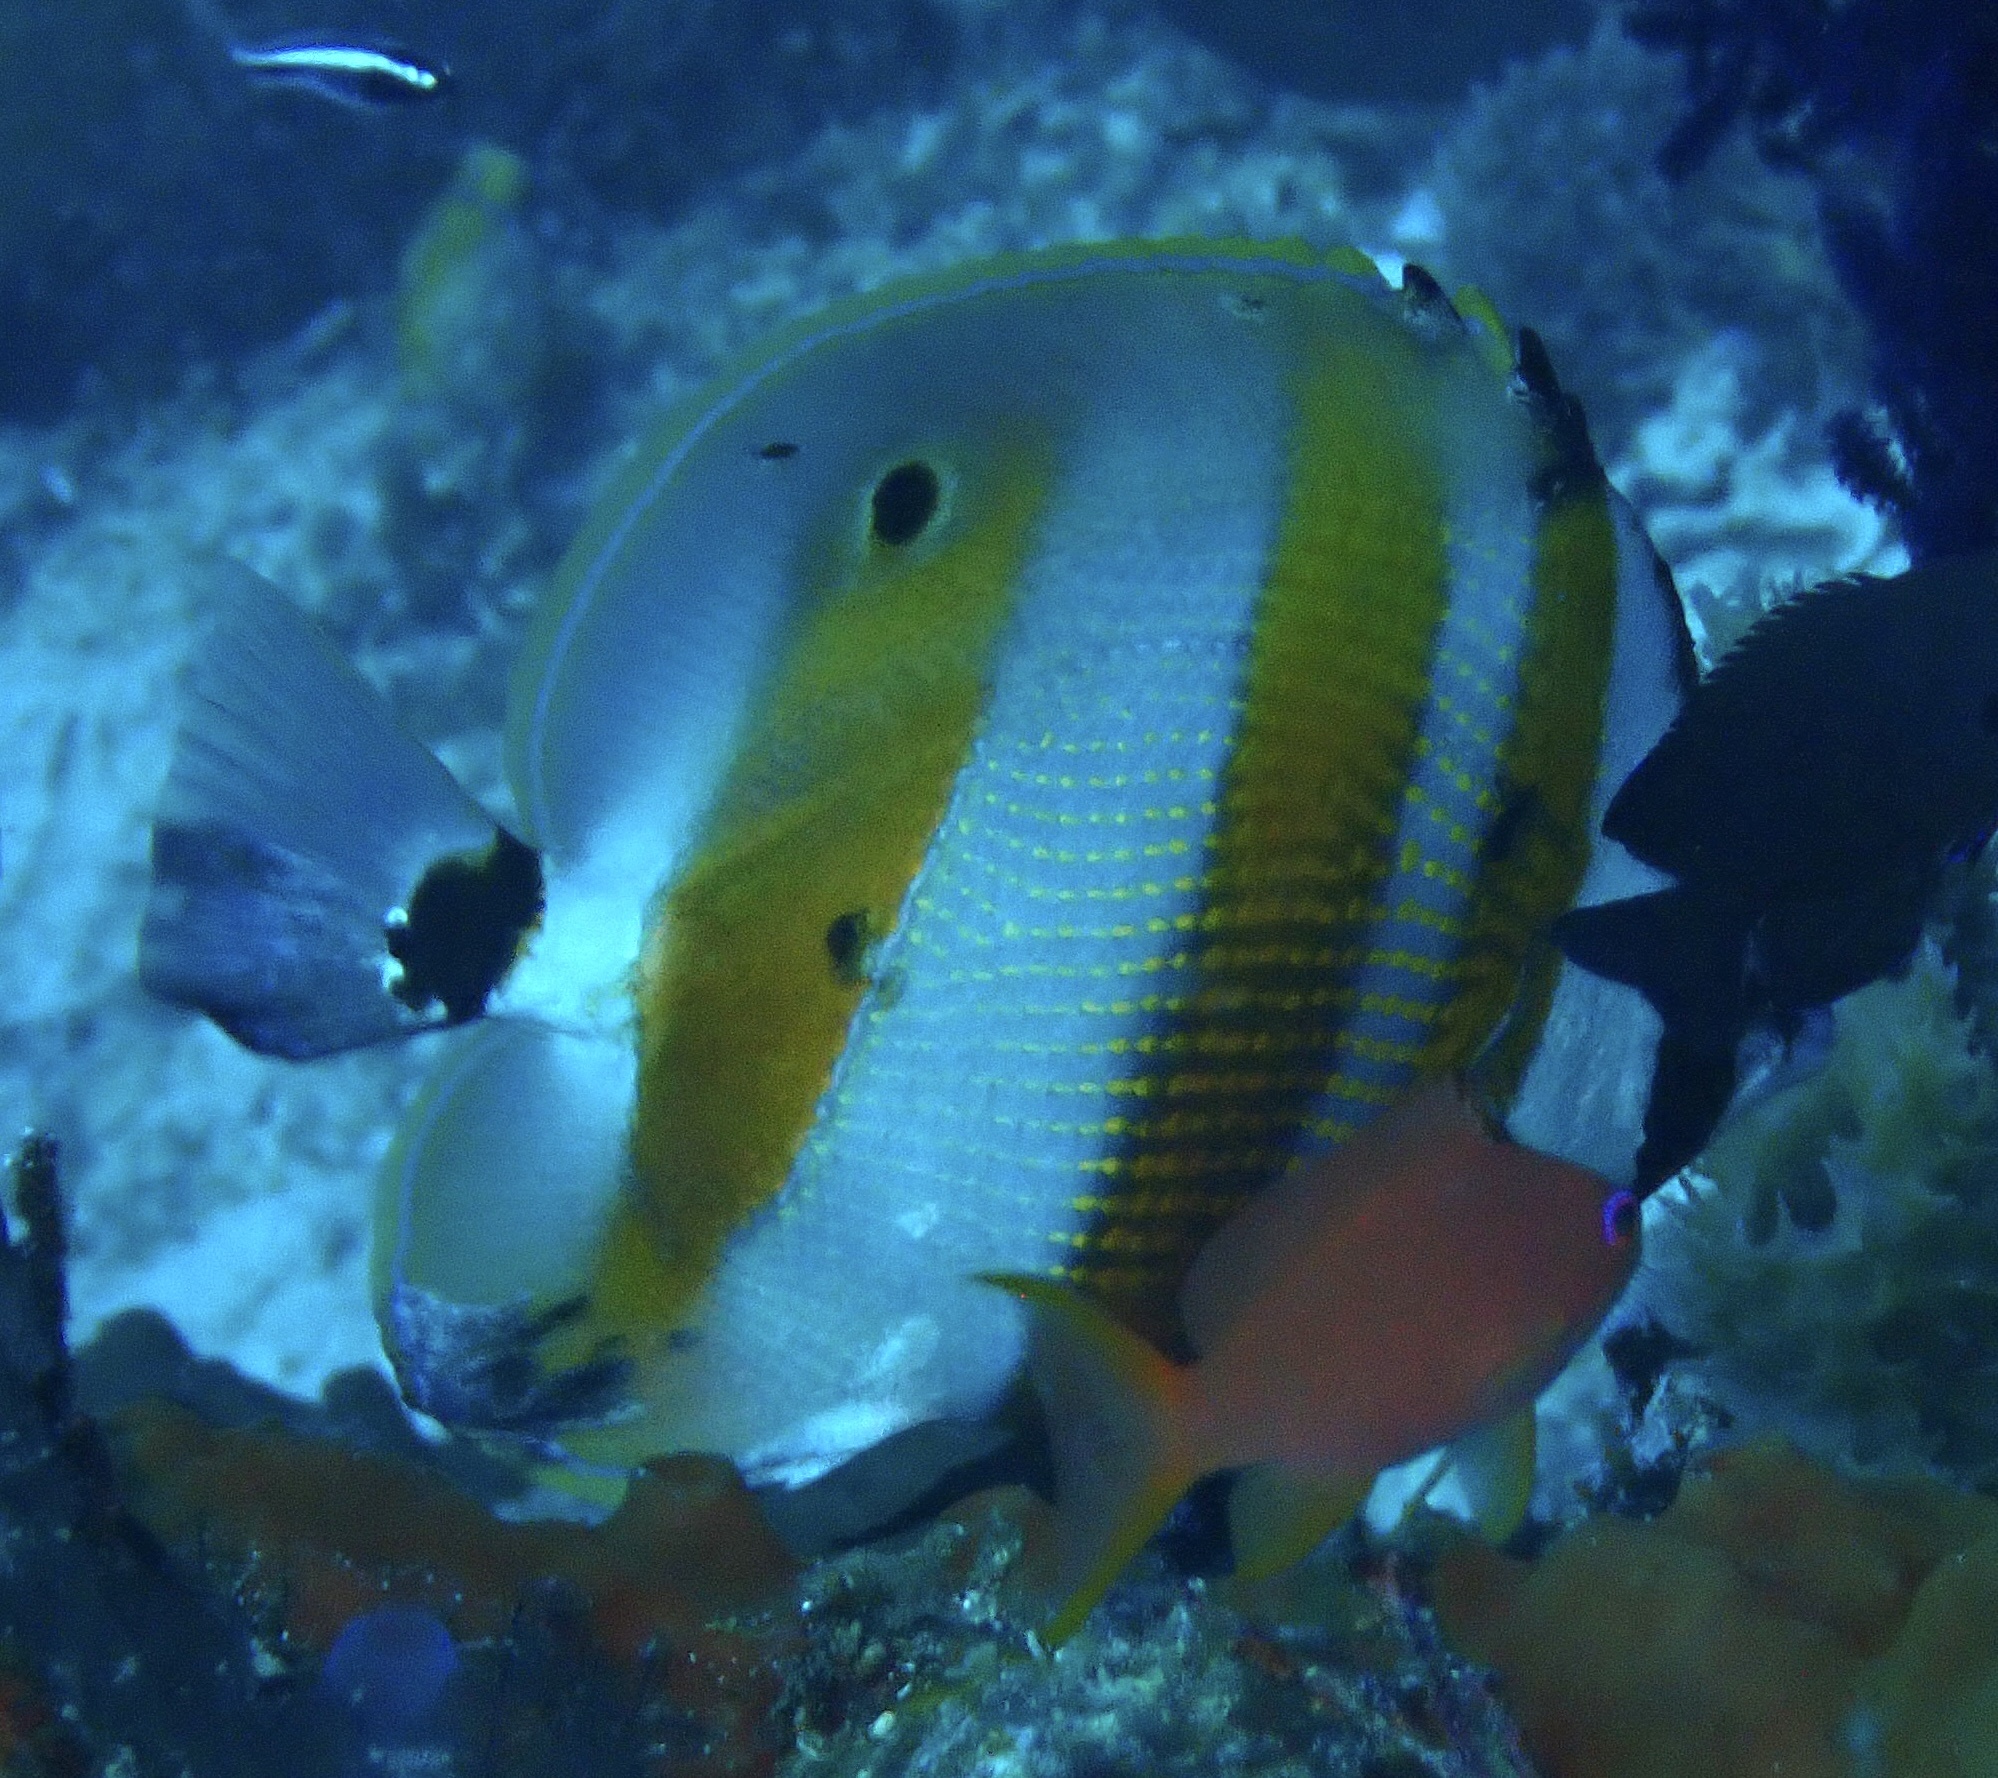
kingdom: Animalia
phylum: Chordata
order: Perciformes
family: Chaetodontidae
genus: Coradion
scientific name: Coradion chrysozonus
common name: Orange-banded coralfish
